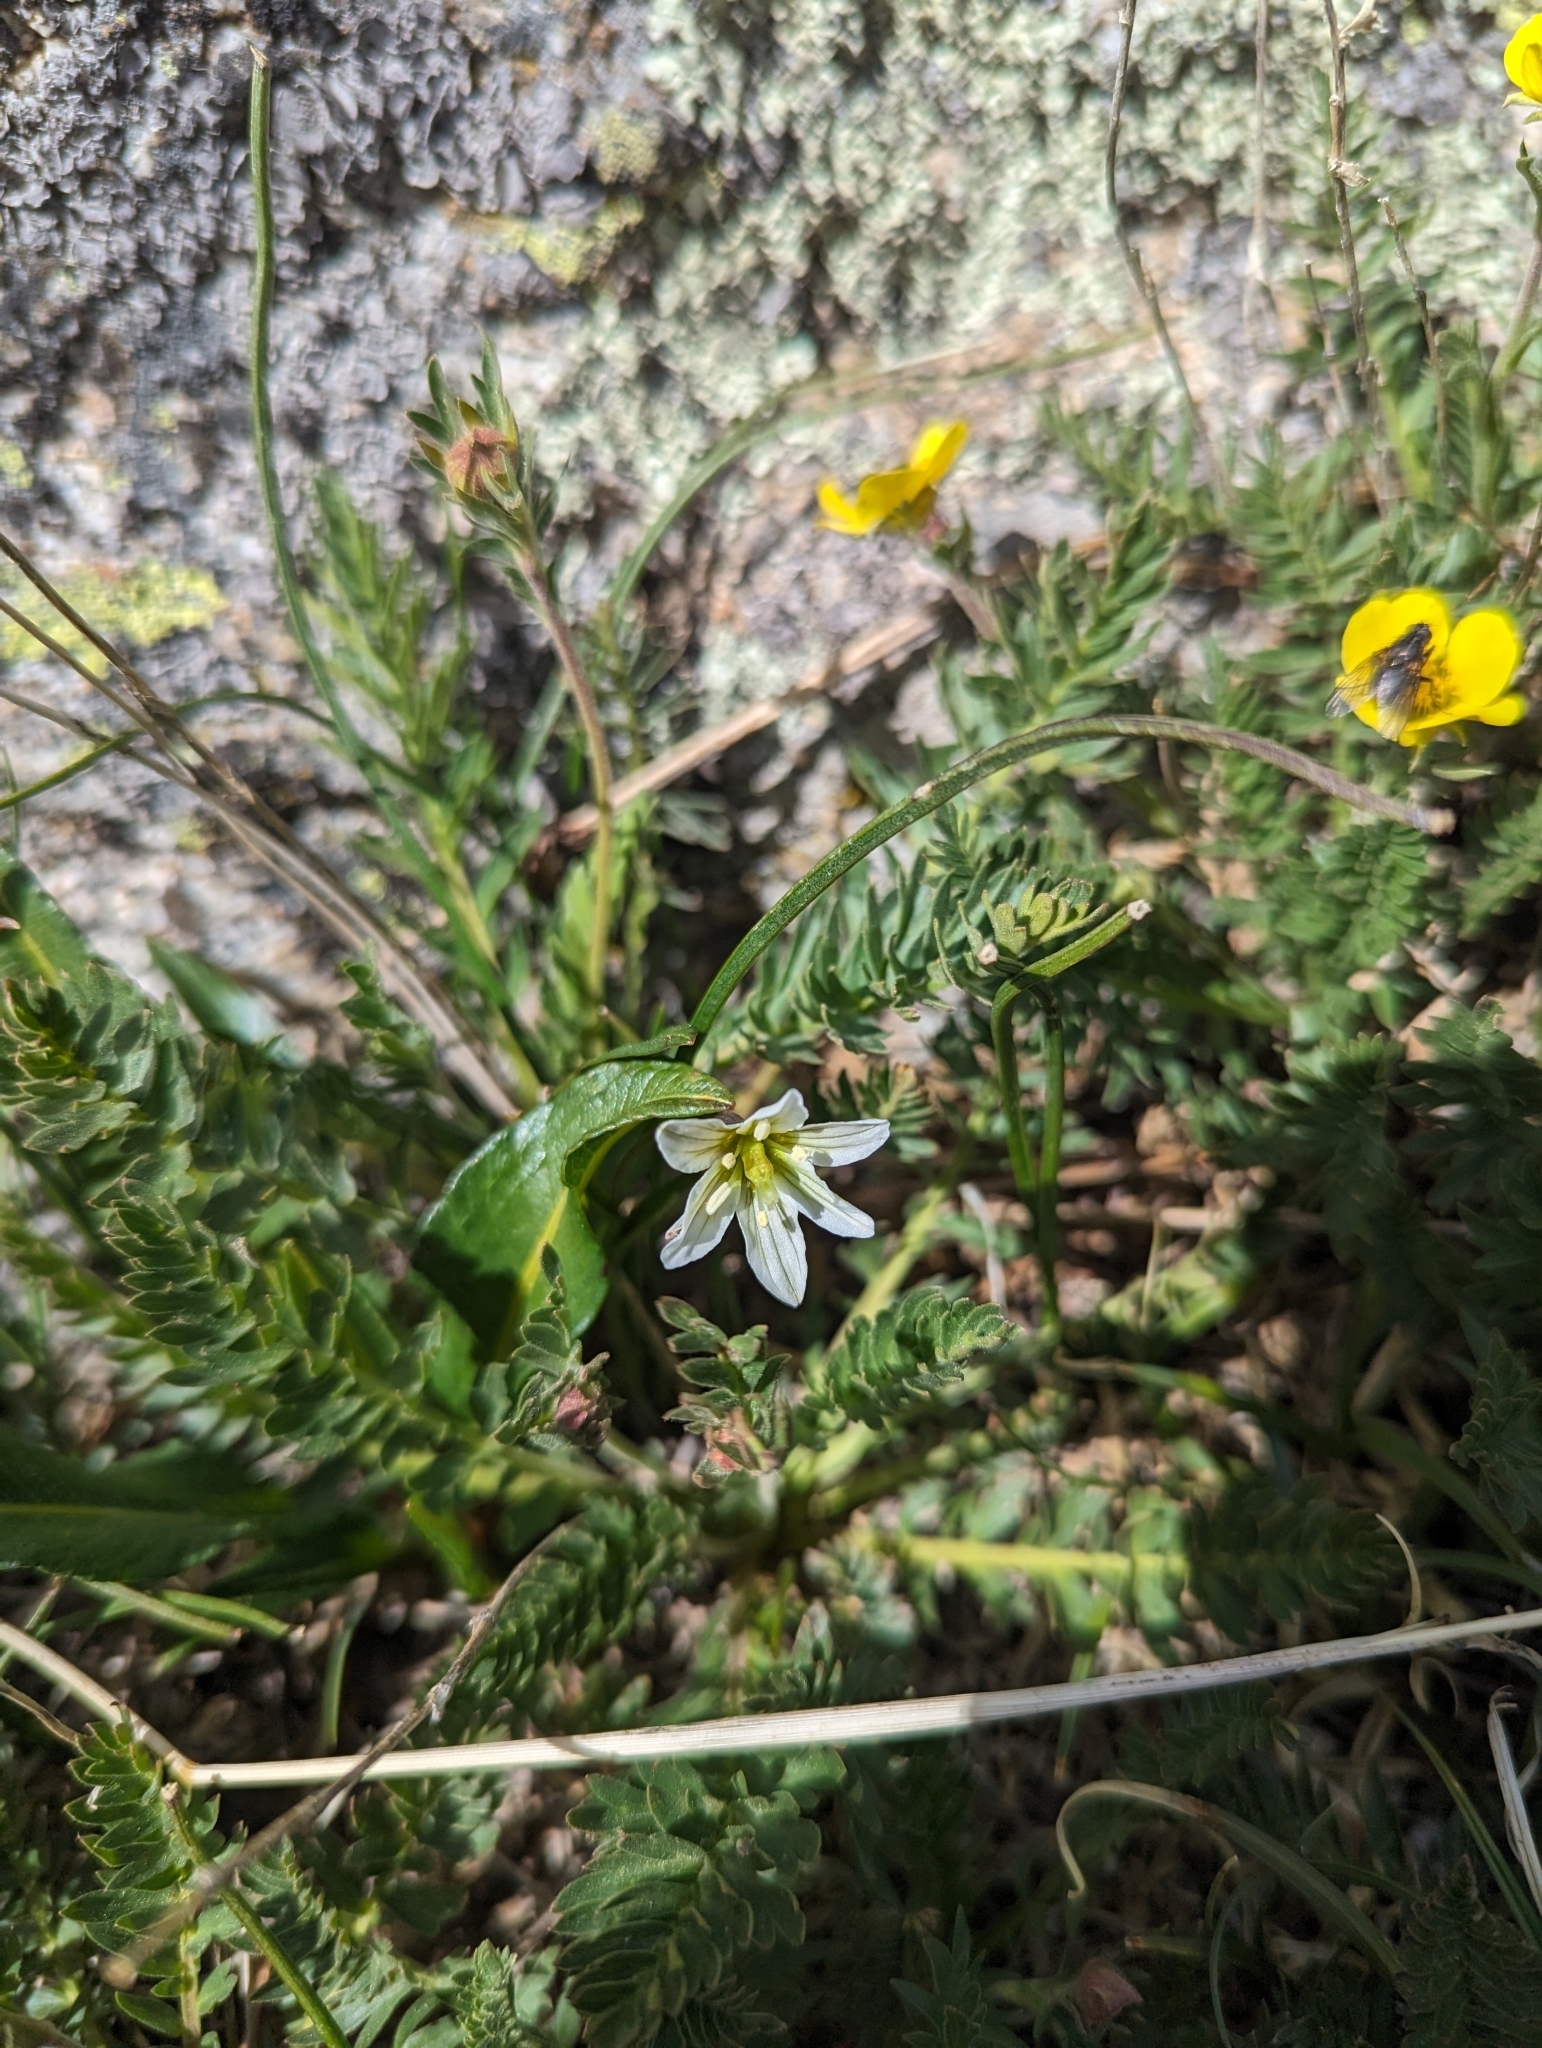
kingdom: Plantae
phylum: Tracheophyta
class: Liliopsida
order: Liliales
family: Liliaceae
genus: Gagea
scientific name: Gagea serotina
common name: Snowdon lily
